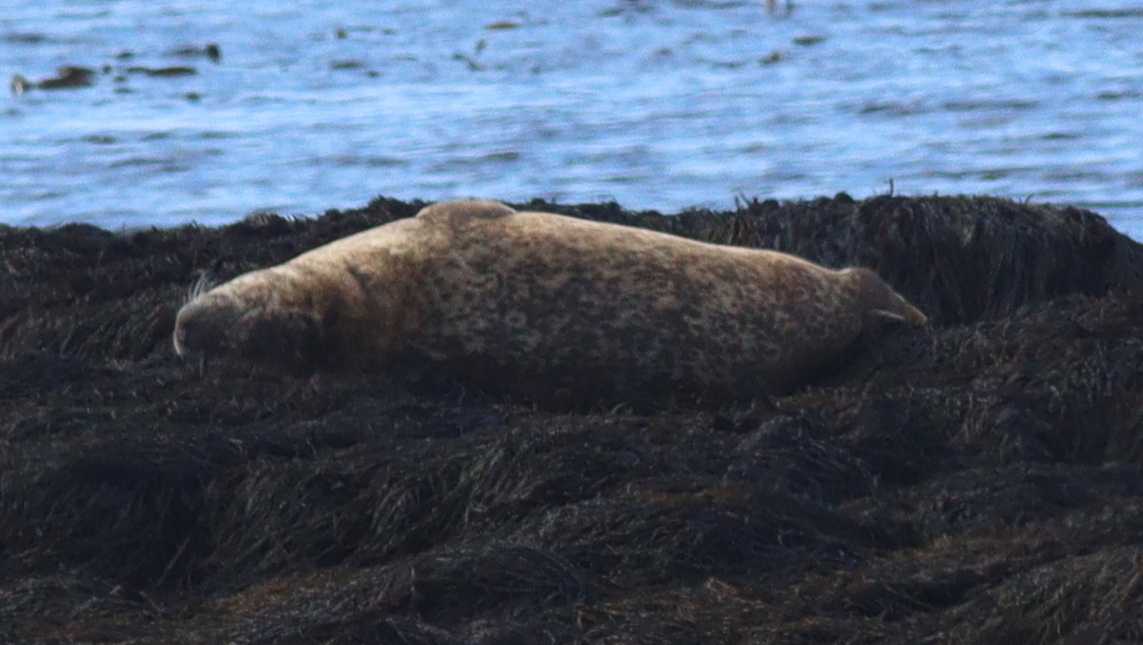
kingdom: Animalia
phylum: Chordata
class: Mammalia
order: Carnivora
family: Phocidae
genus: Phoca
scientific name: Phoca vitulina
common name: Harbor seal
